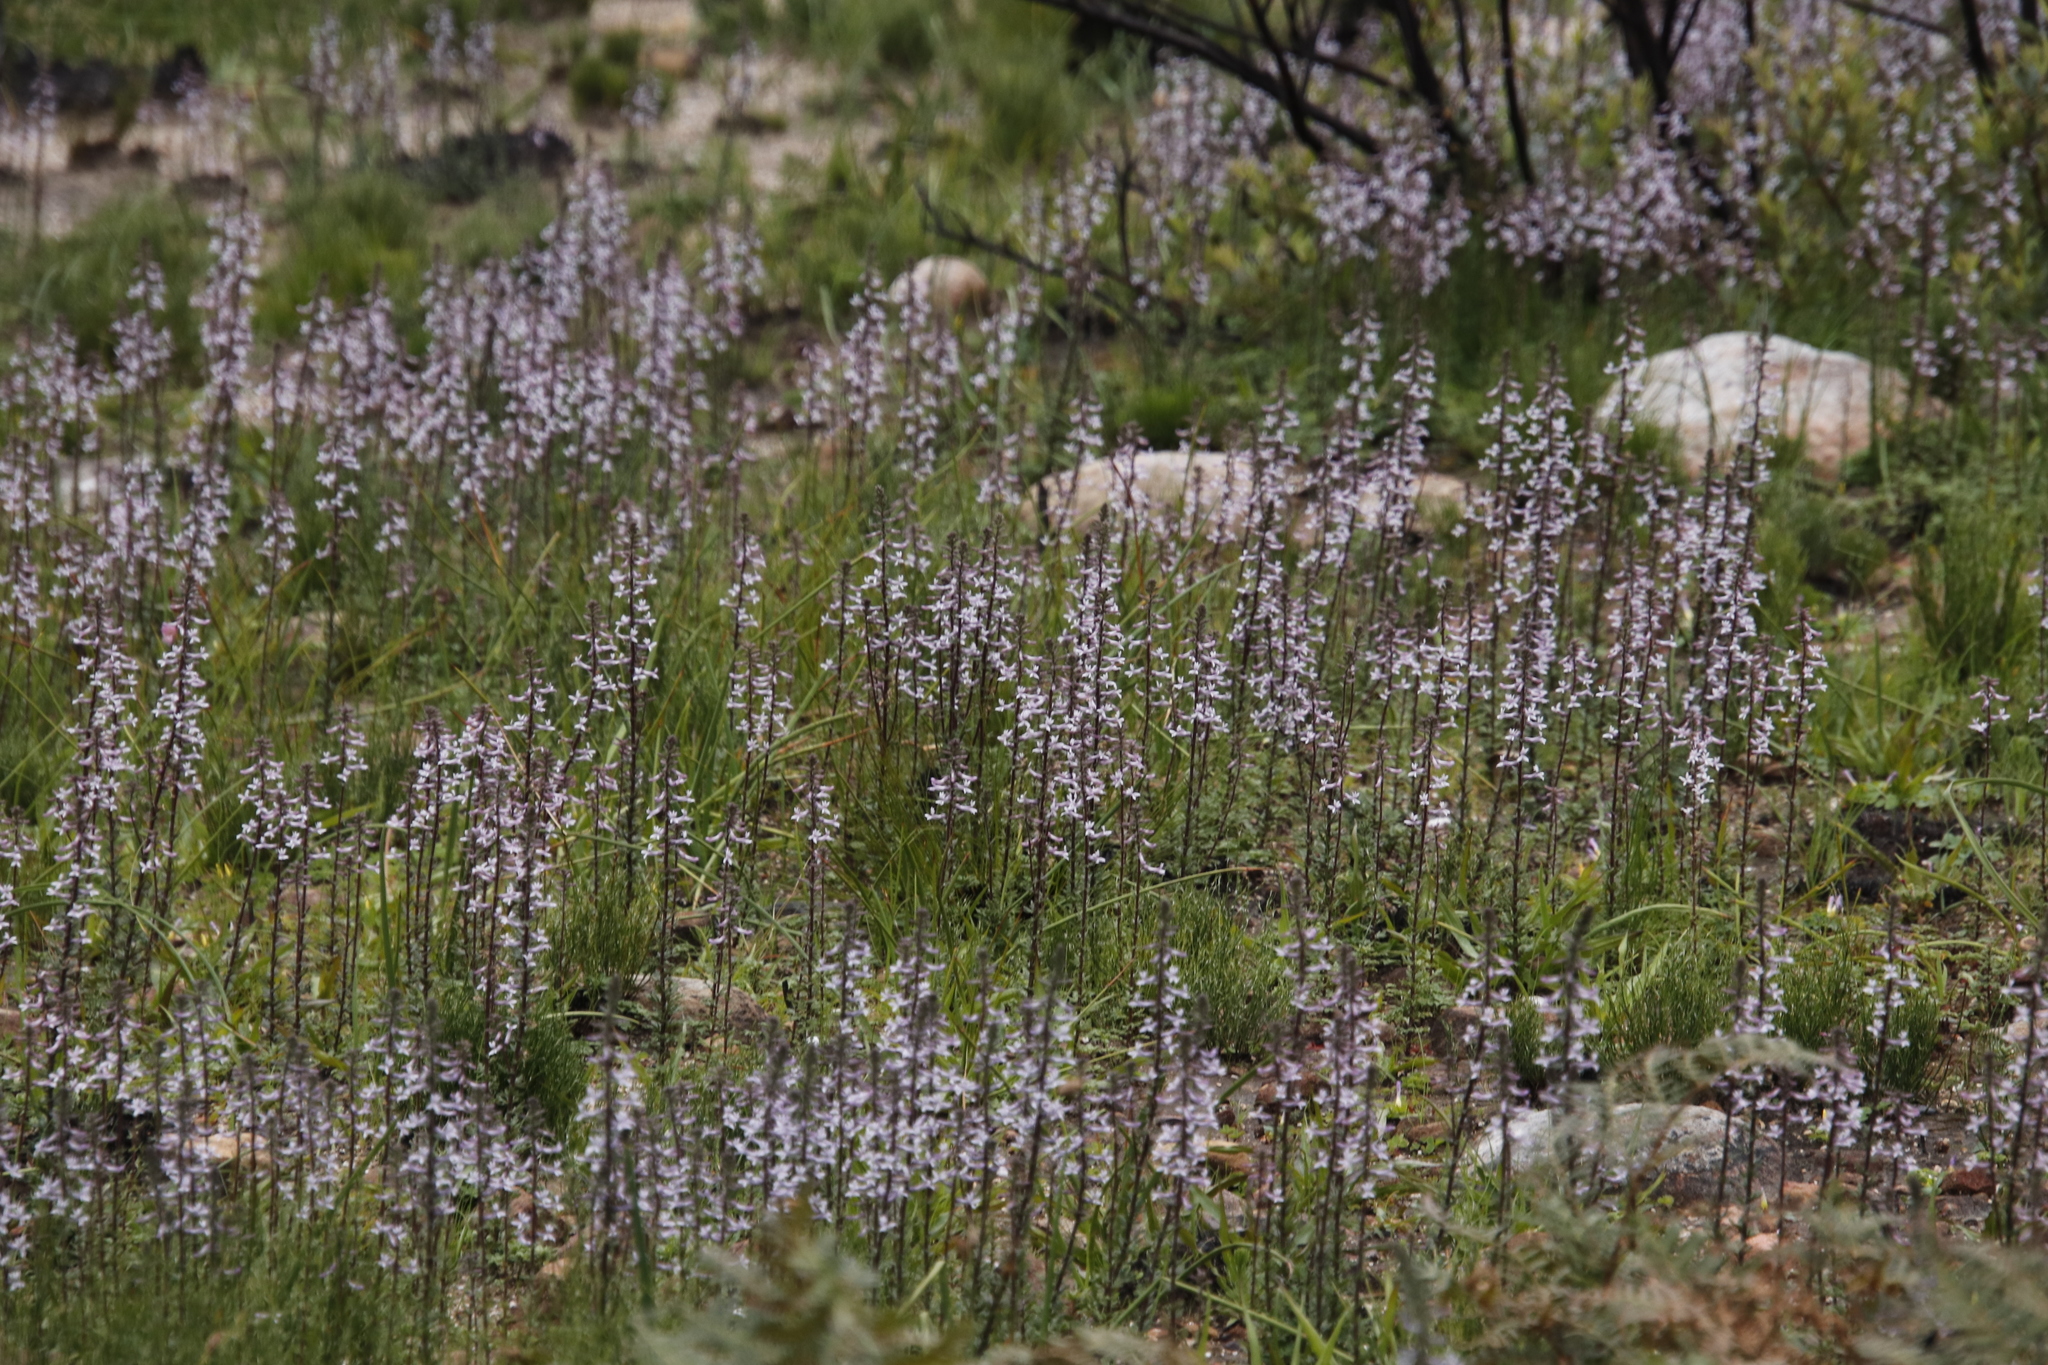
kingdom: Plantae
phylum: Tracheophyta
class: Magnoliopsida
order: Asterales
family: Campanulaceae
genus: Cyphia
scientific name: Cyphia bulbosa
